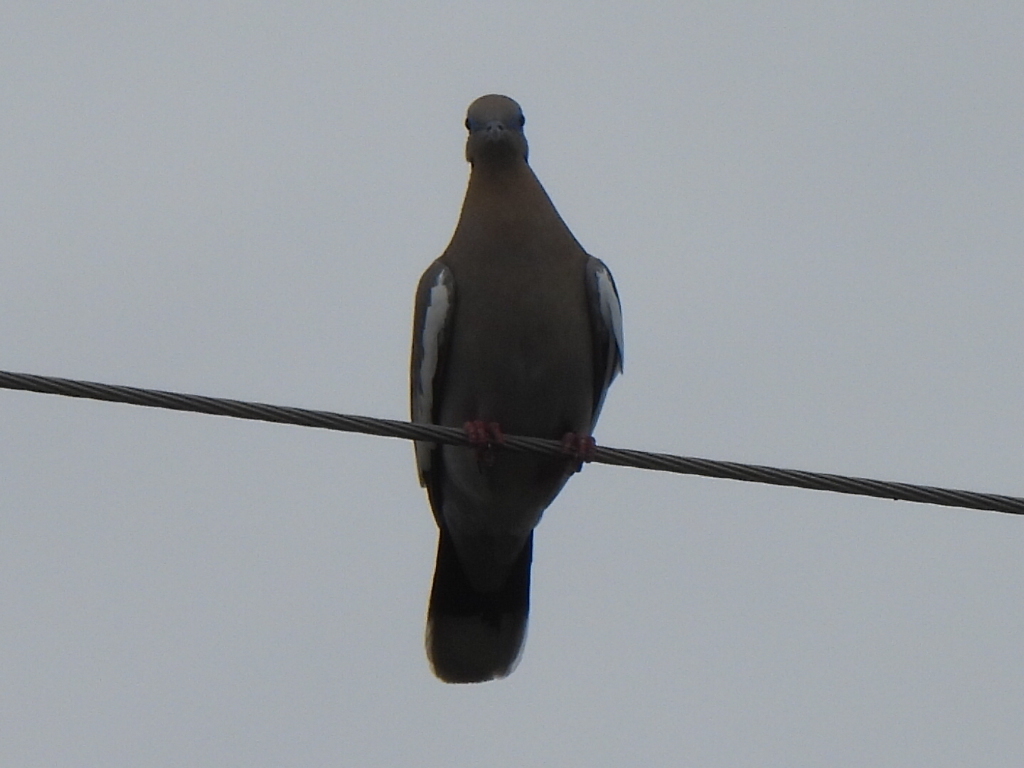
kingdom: Animalia
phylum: Chordata
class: Aves
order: Columbiformes
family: Columbidae
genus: Zenaida
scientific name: Zenaida asiatica
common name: White-winged dove
